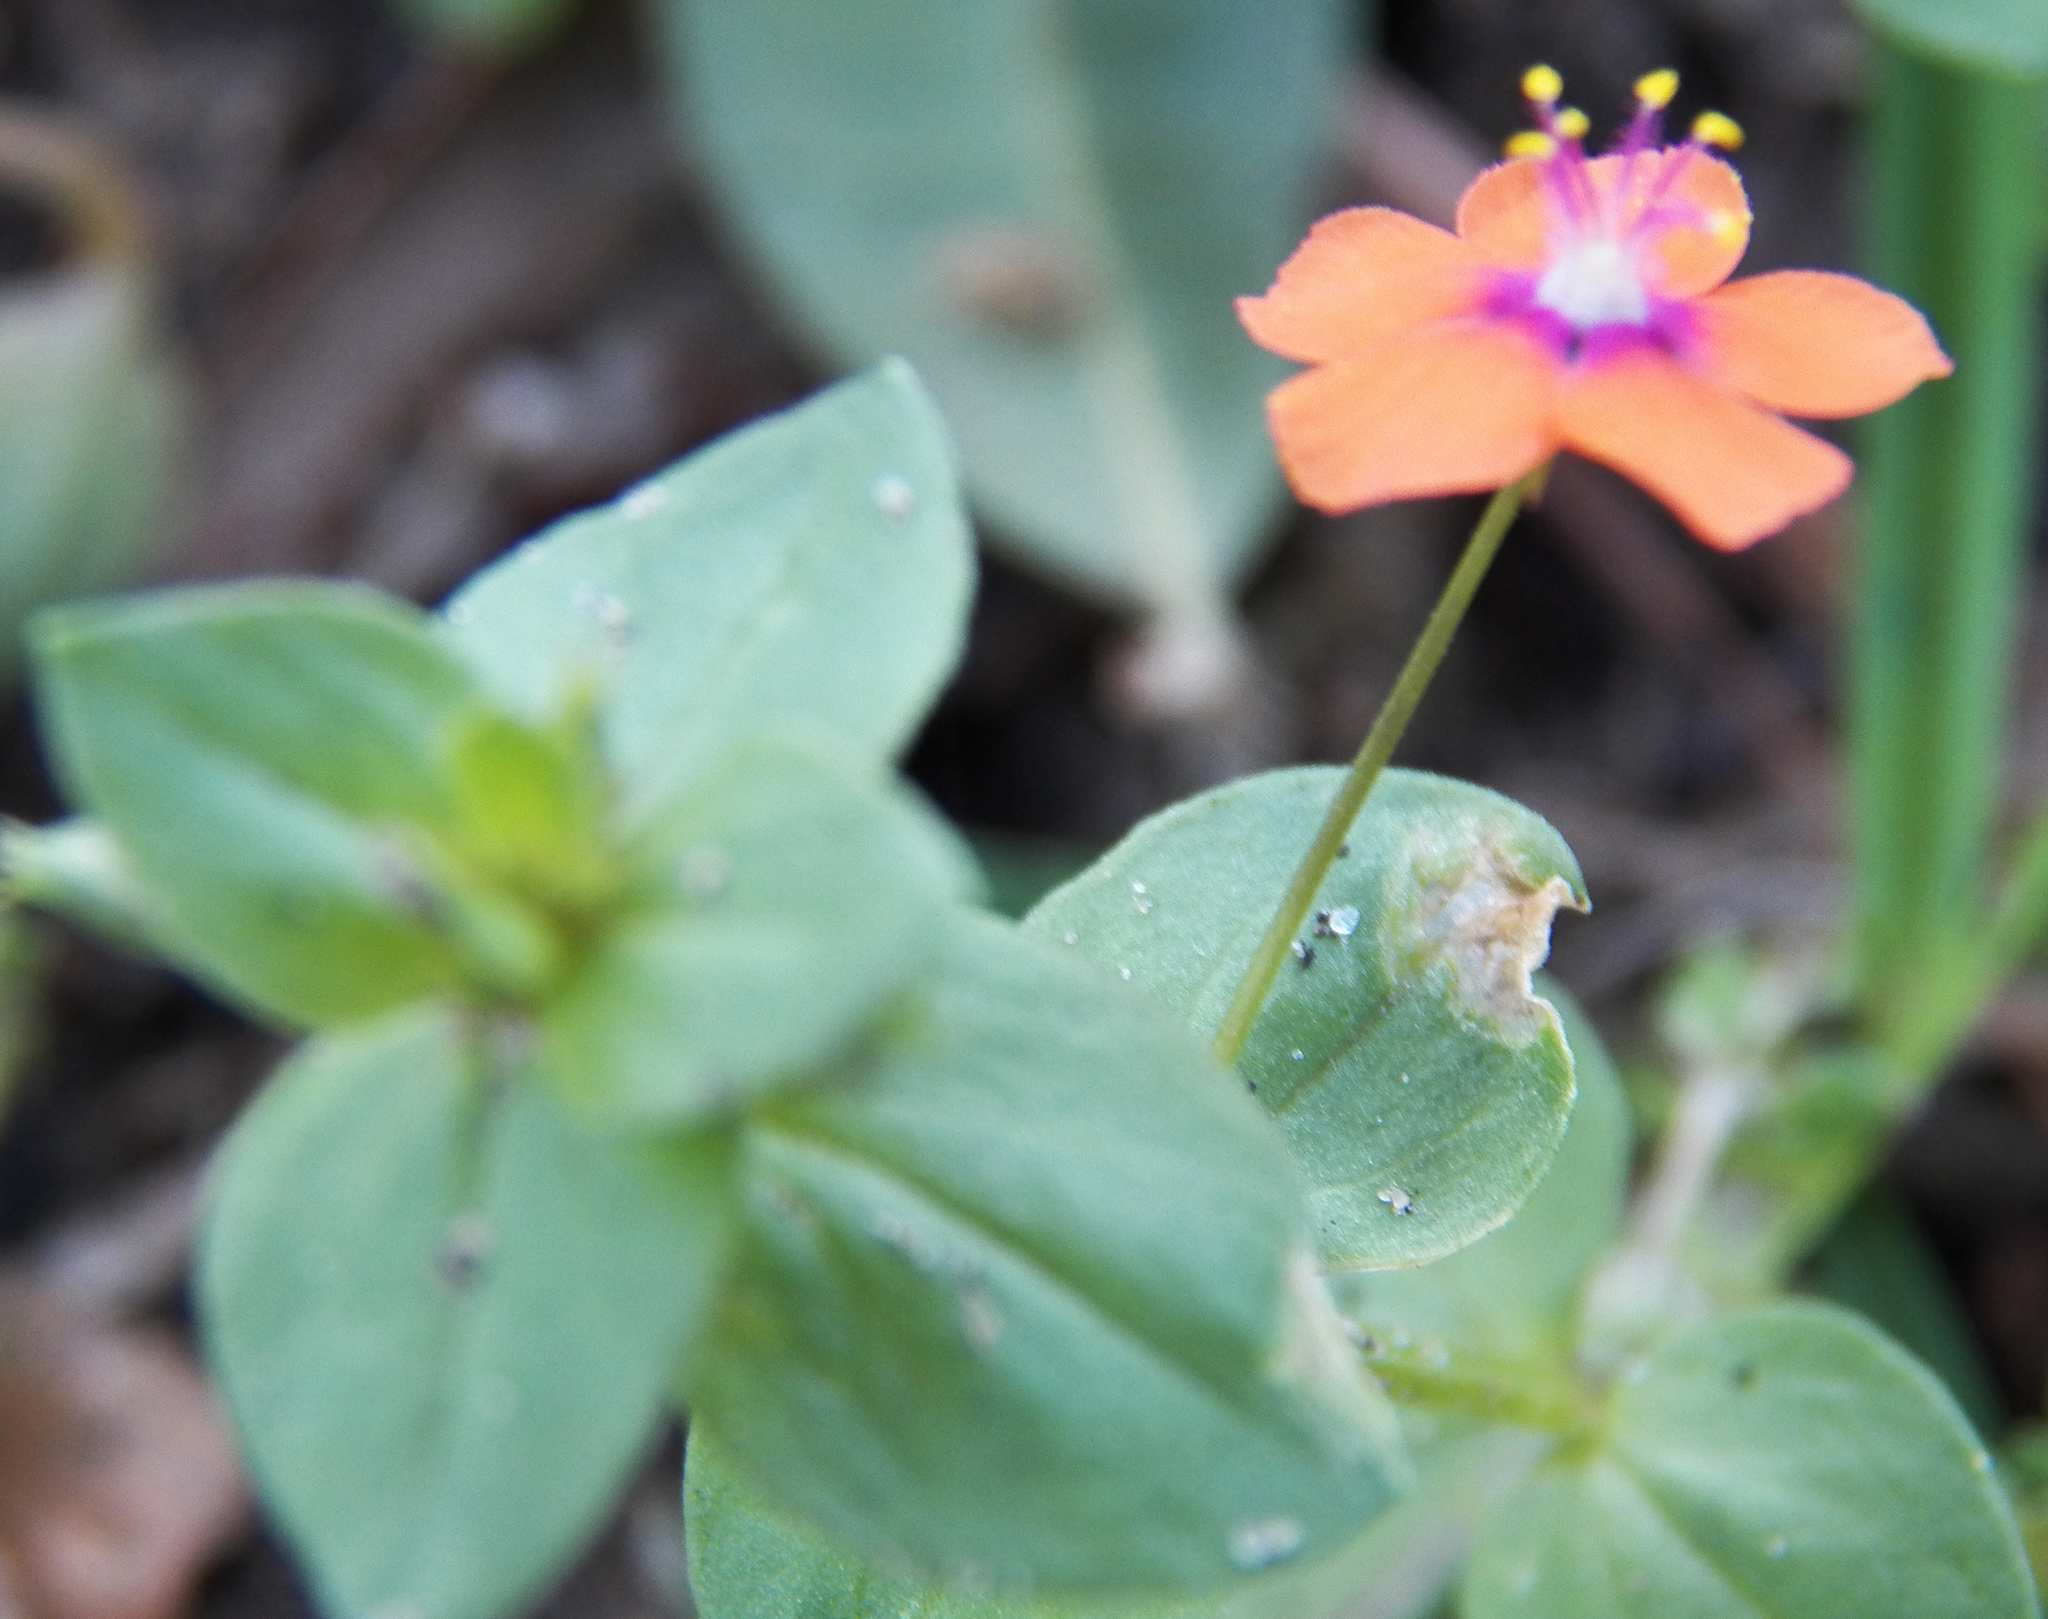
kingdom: Plantae
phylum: Tracheophyta
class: Magnoliopsida
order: Ericales
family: Primulaceae
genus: Lysimachia
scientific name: Lysimachia arvensis
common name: Scarlet pimpernel
